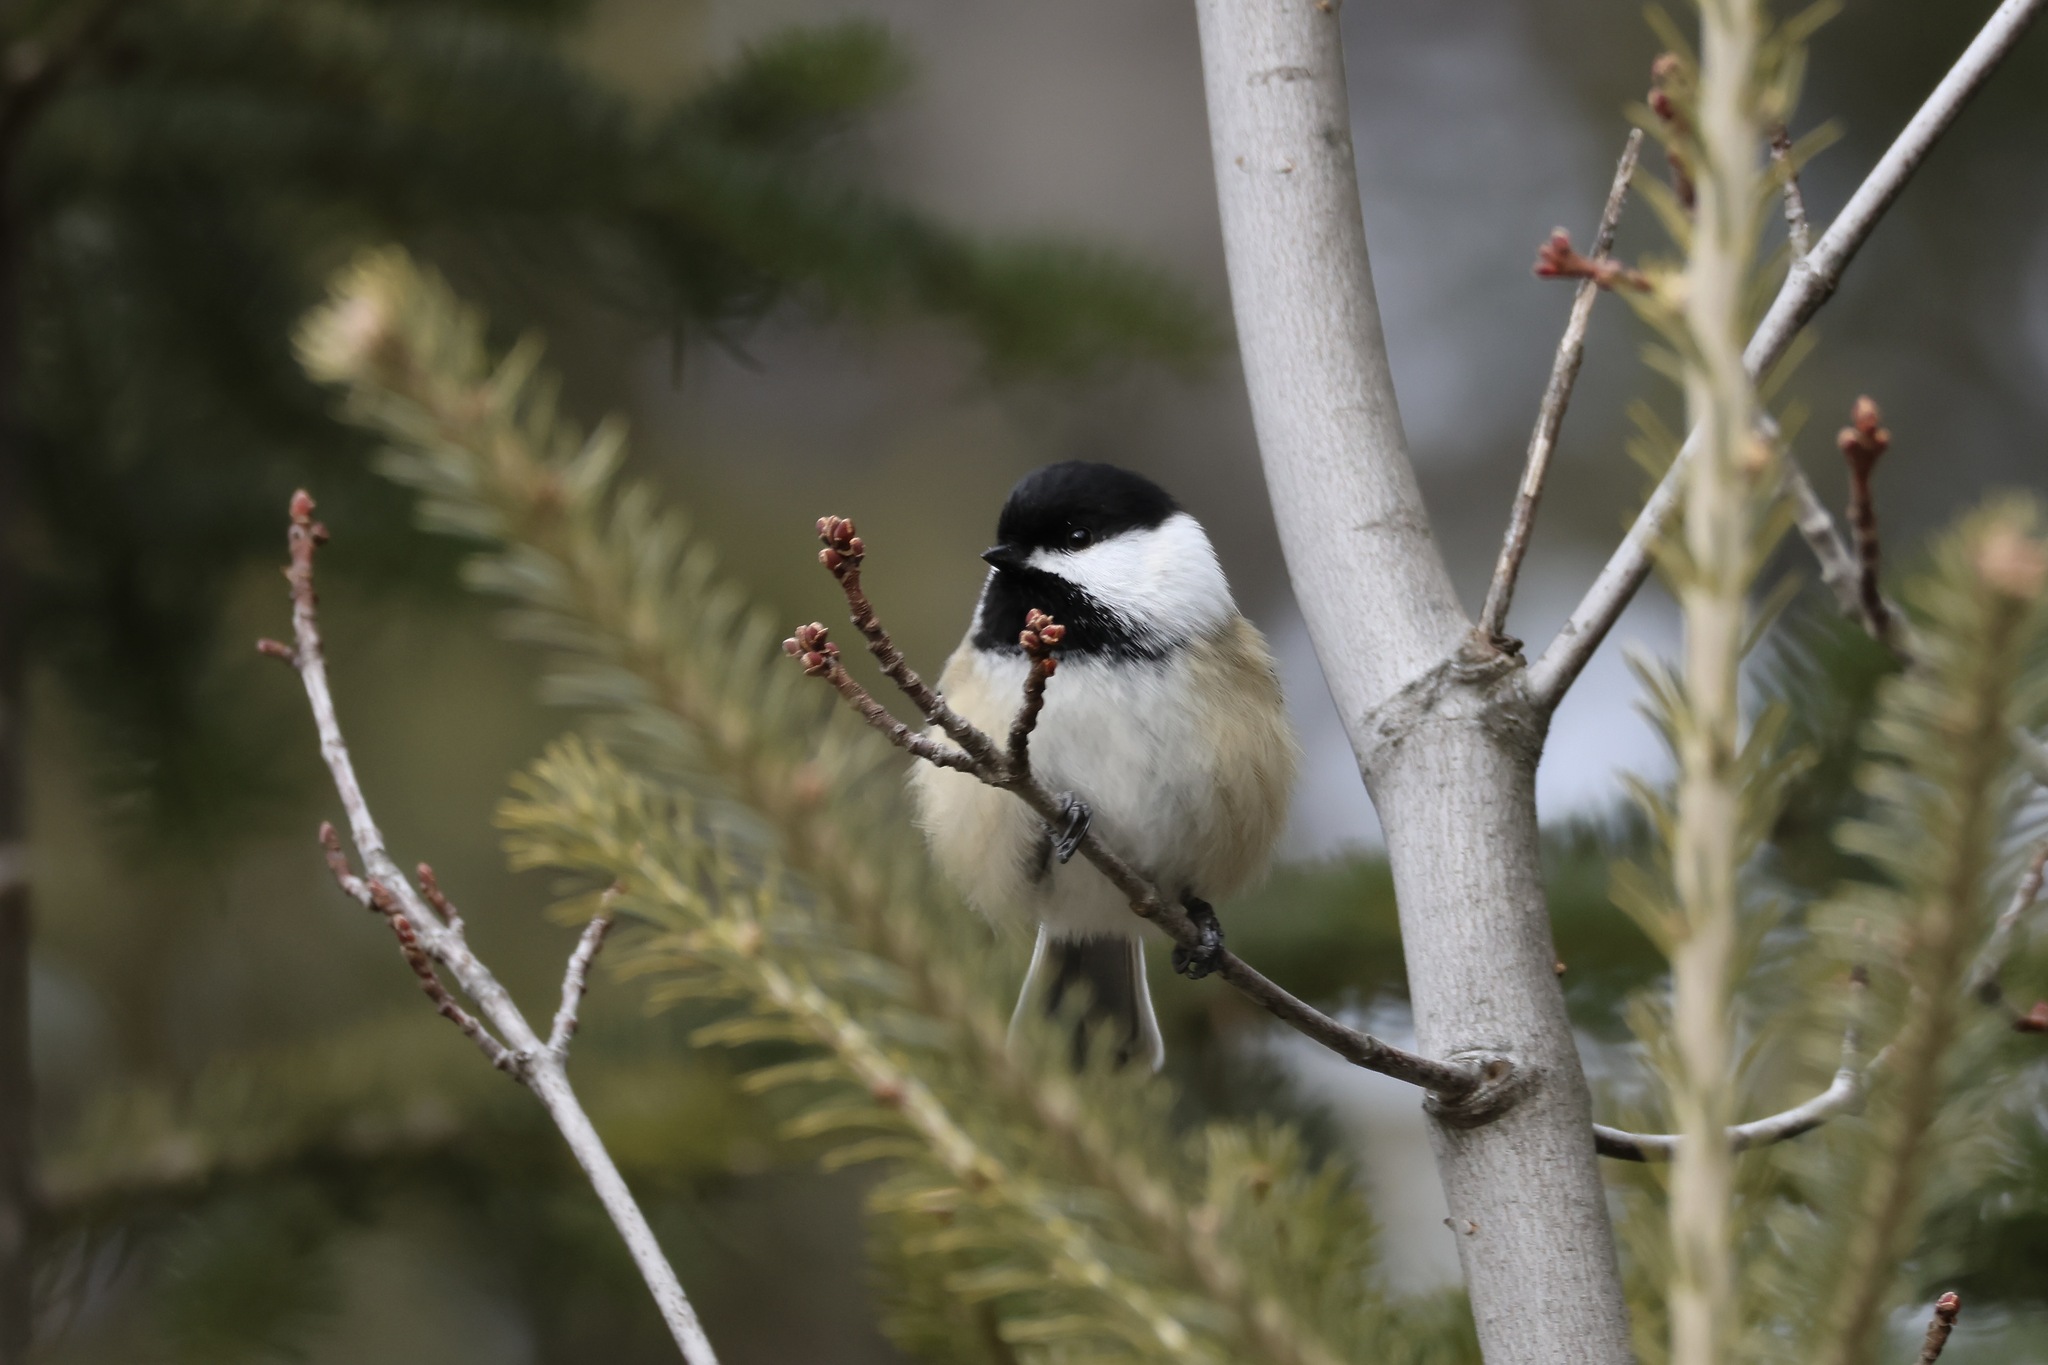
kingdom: Animalia
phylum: Chordata
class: Aves
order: Passeriformes
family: Paridae
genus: Poecile
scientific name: Poecile atricapillus
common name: Black-capped chickadee
